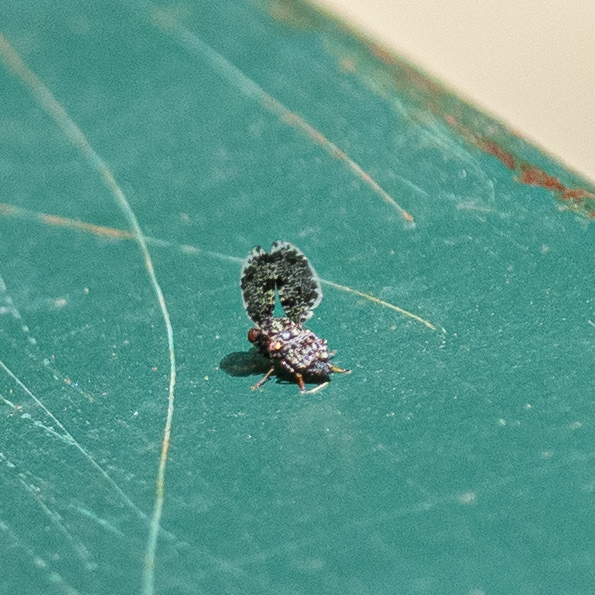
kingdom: Animalia
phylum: Arthropoda
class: Insecta
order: Diptera
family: Ulidiidae
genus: Callopistromyia
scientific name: Callopistromyia annulipes
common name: Peacock fly
